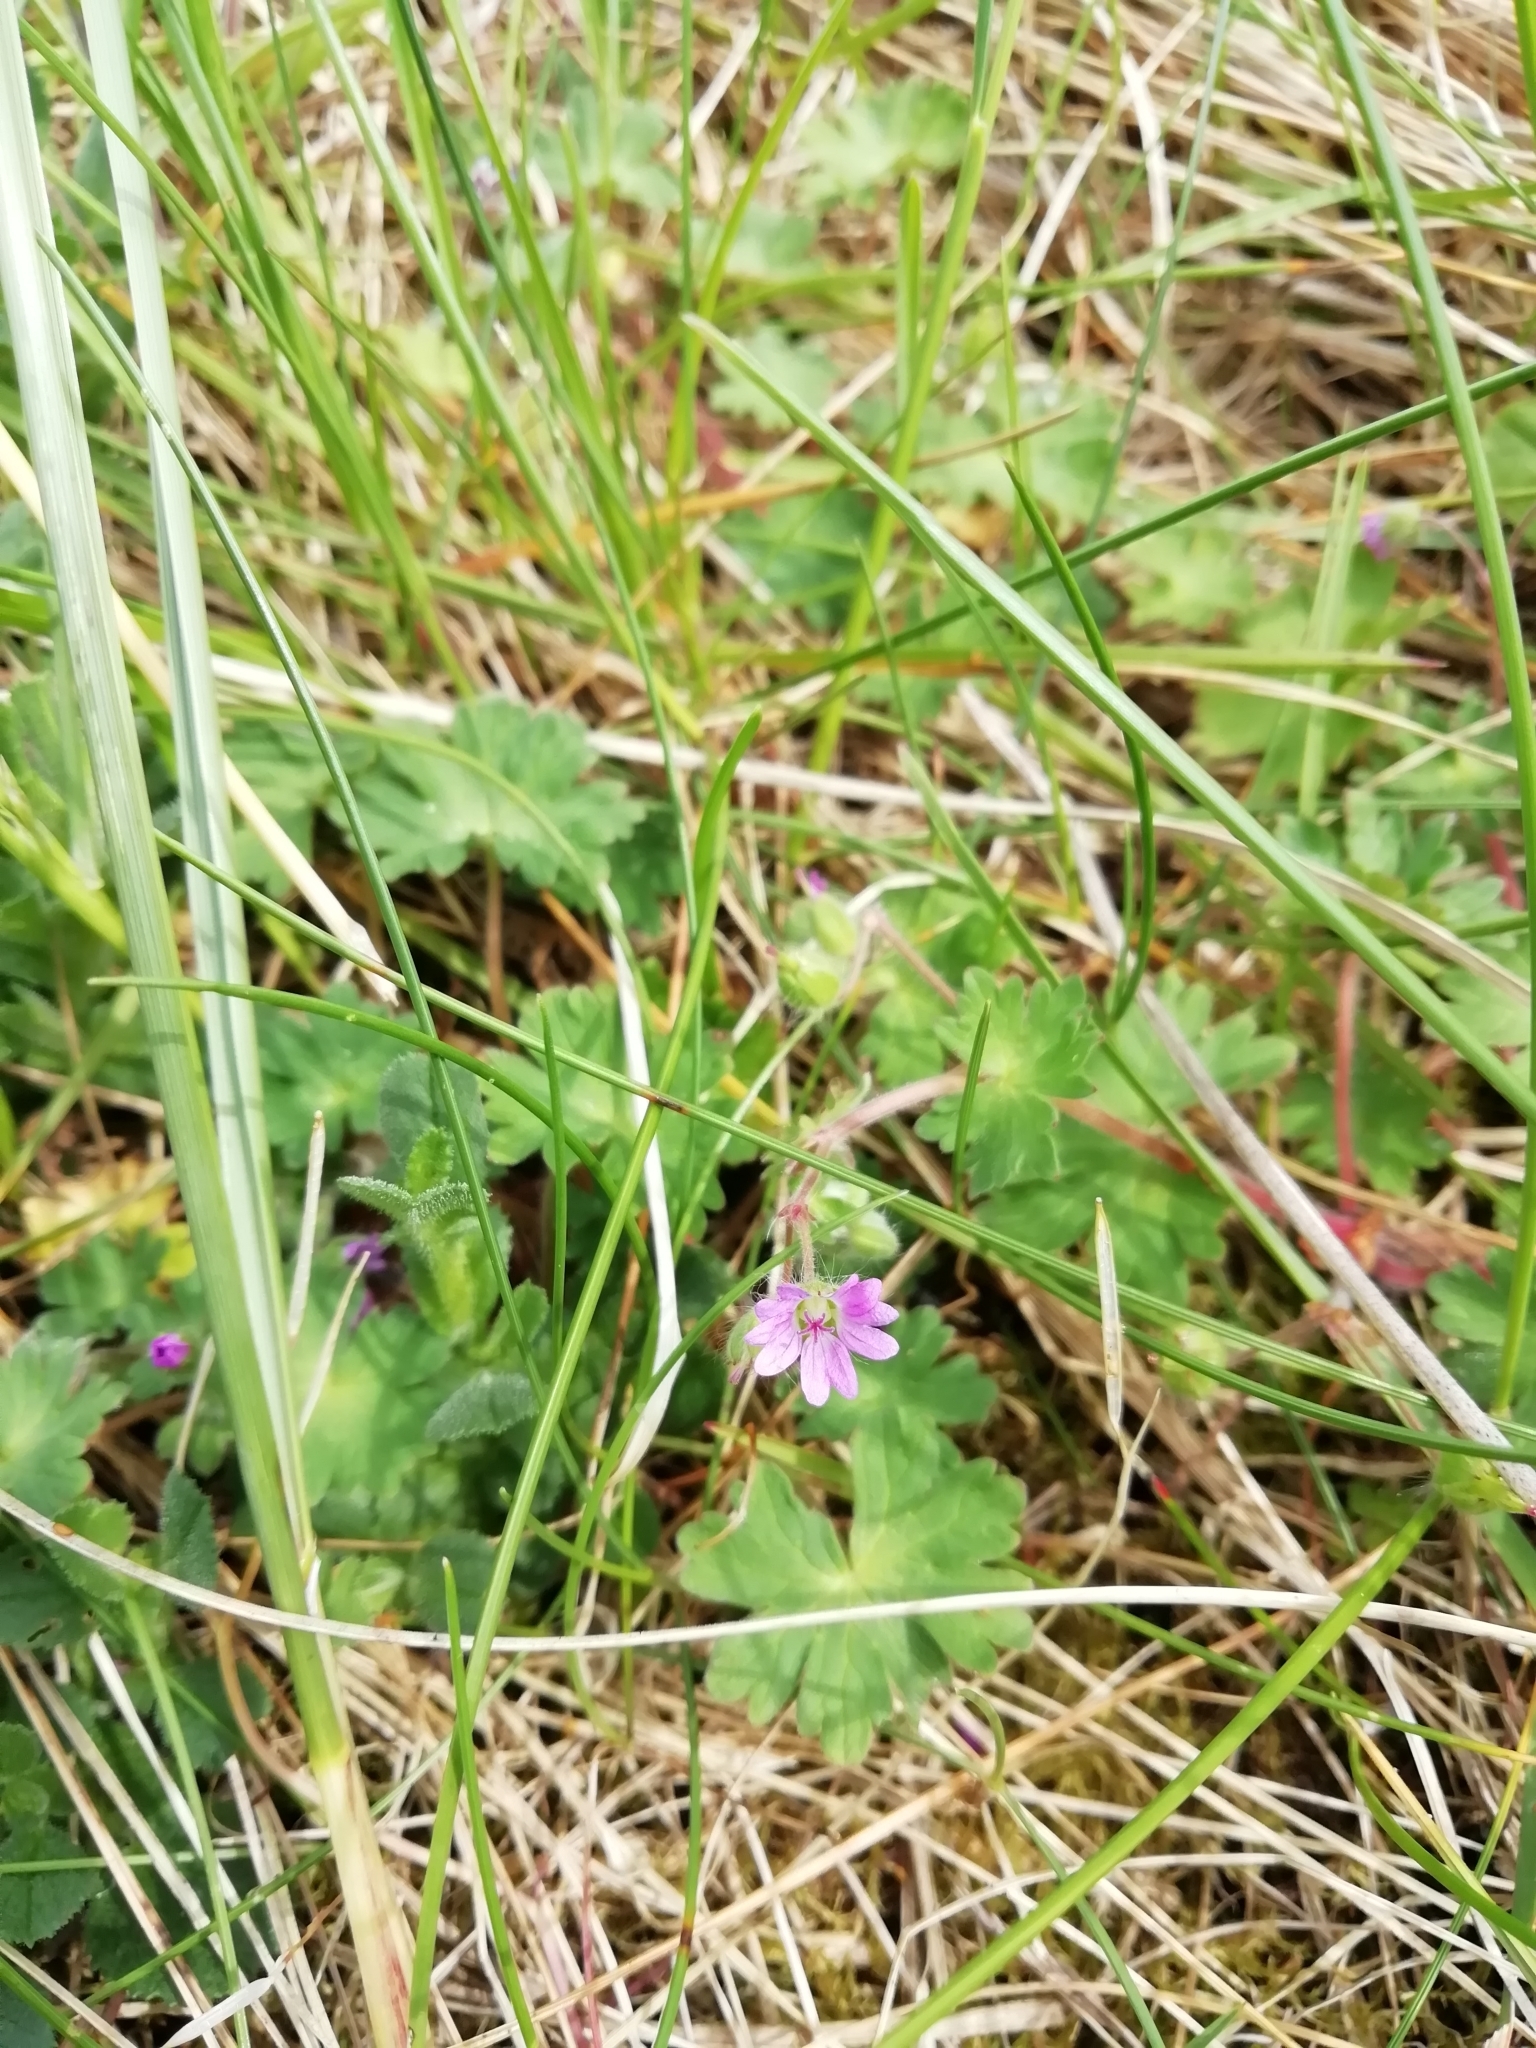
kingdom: Plantae
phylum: Tracheophyta
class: Magnoliopsida
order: Geraniales
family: Geraniaceae
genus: Geranium
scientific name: Geranium molle
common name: Dove's-foot crane's-bill
